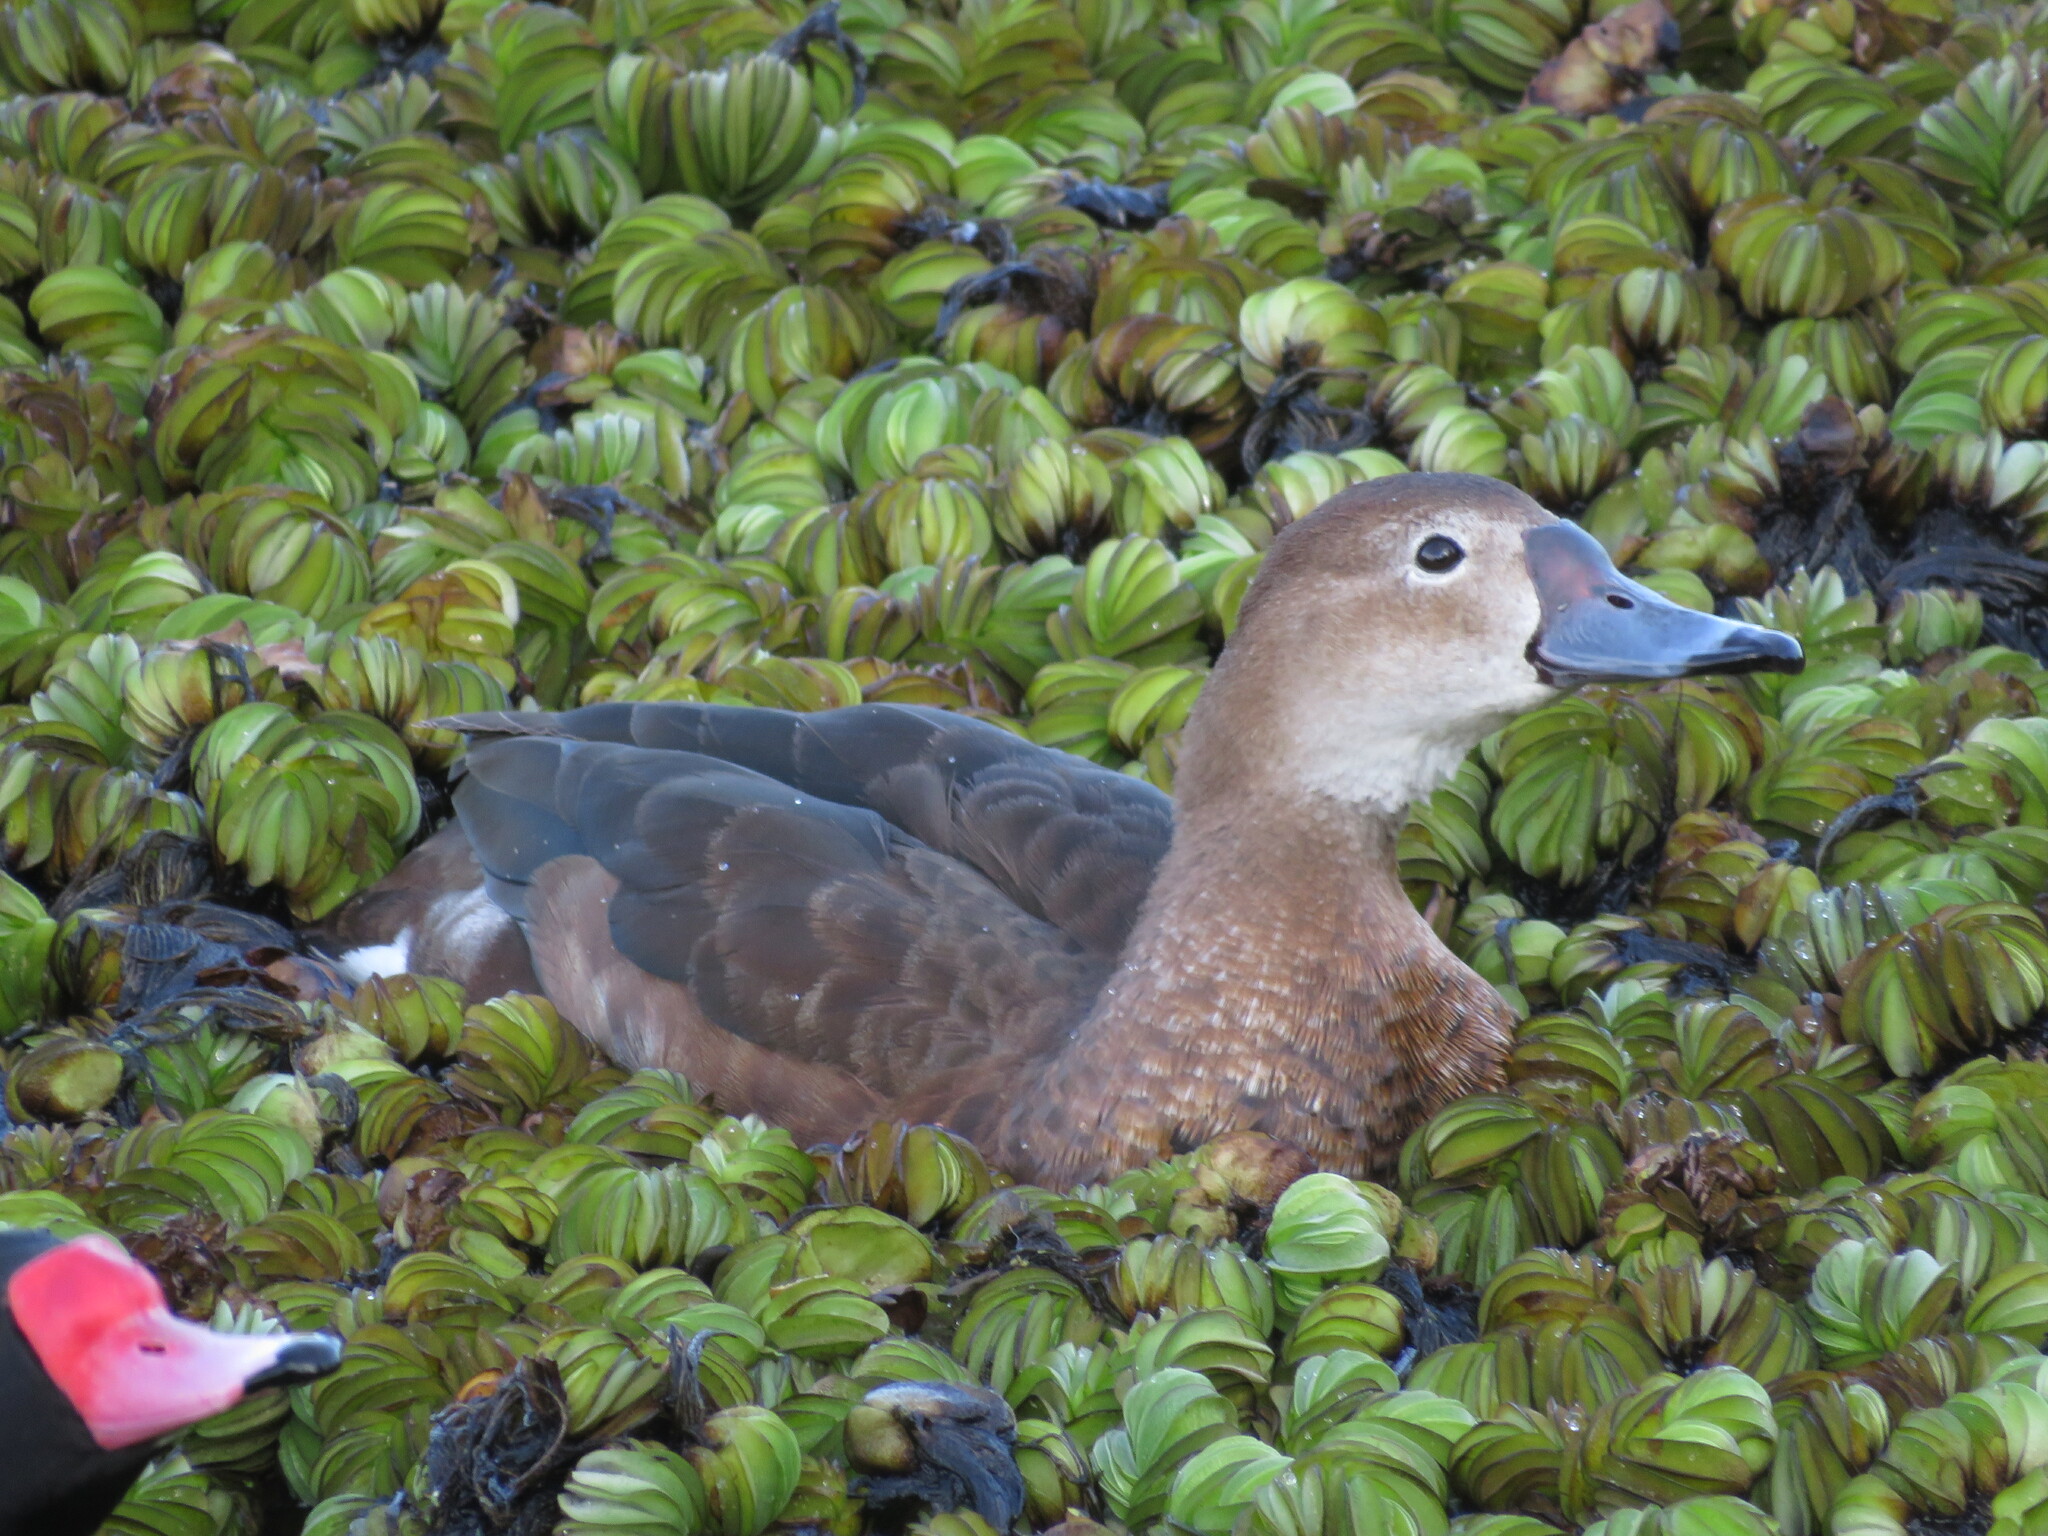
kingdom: Animalia
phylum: Chordata
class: Aves
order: Anseriformes
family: Anatidae
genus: Netta
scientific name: Netta peposaca
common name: Rosy-billed pochard
